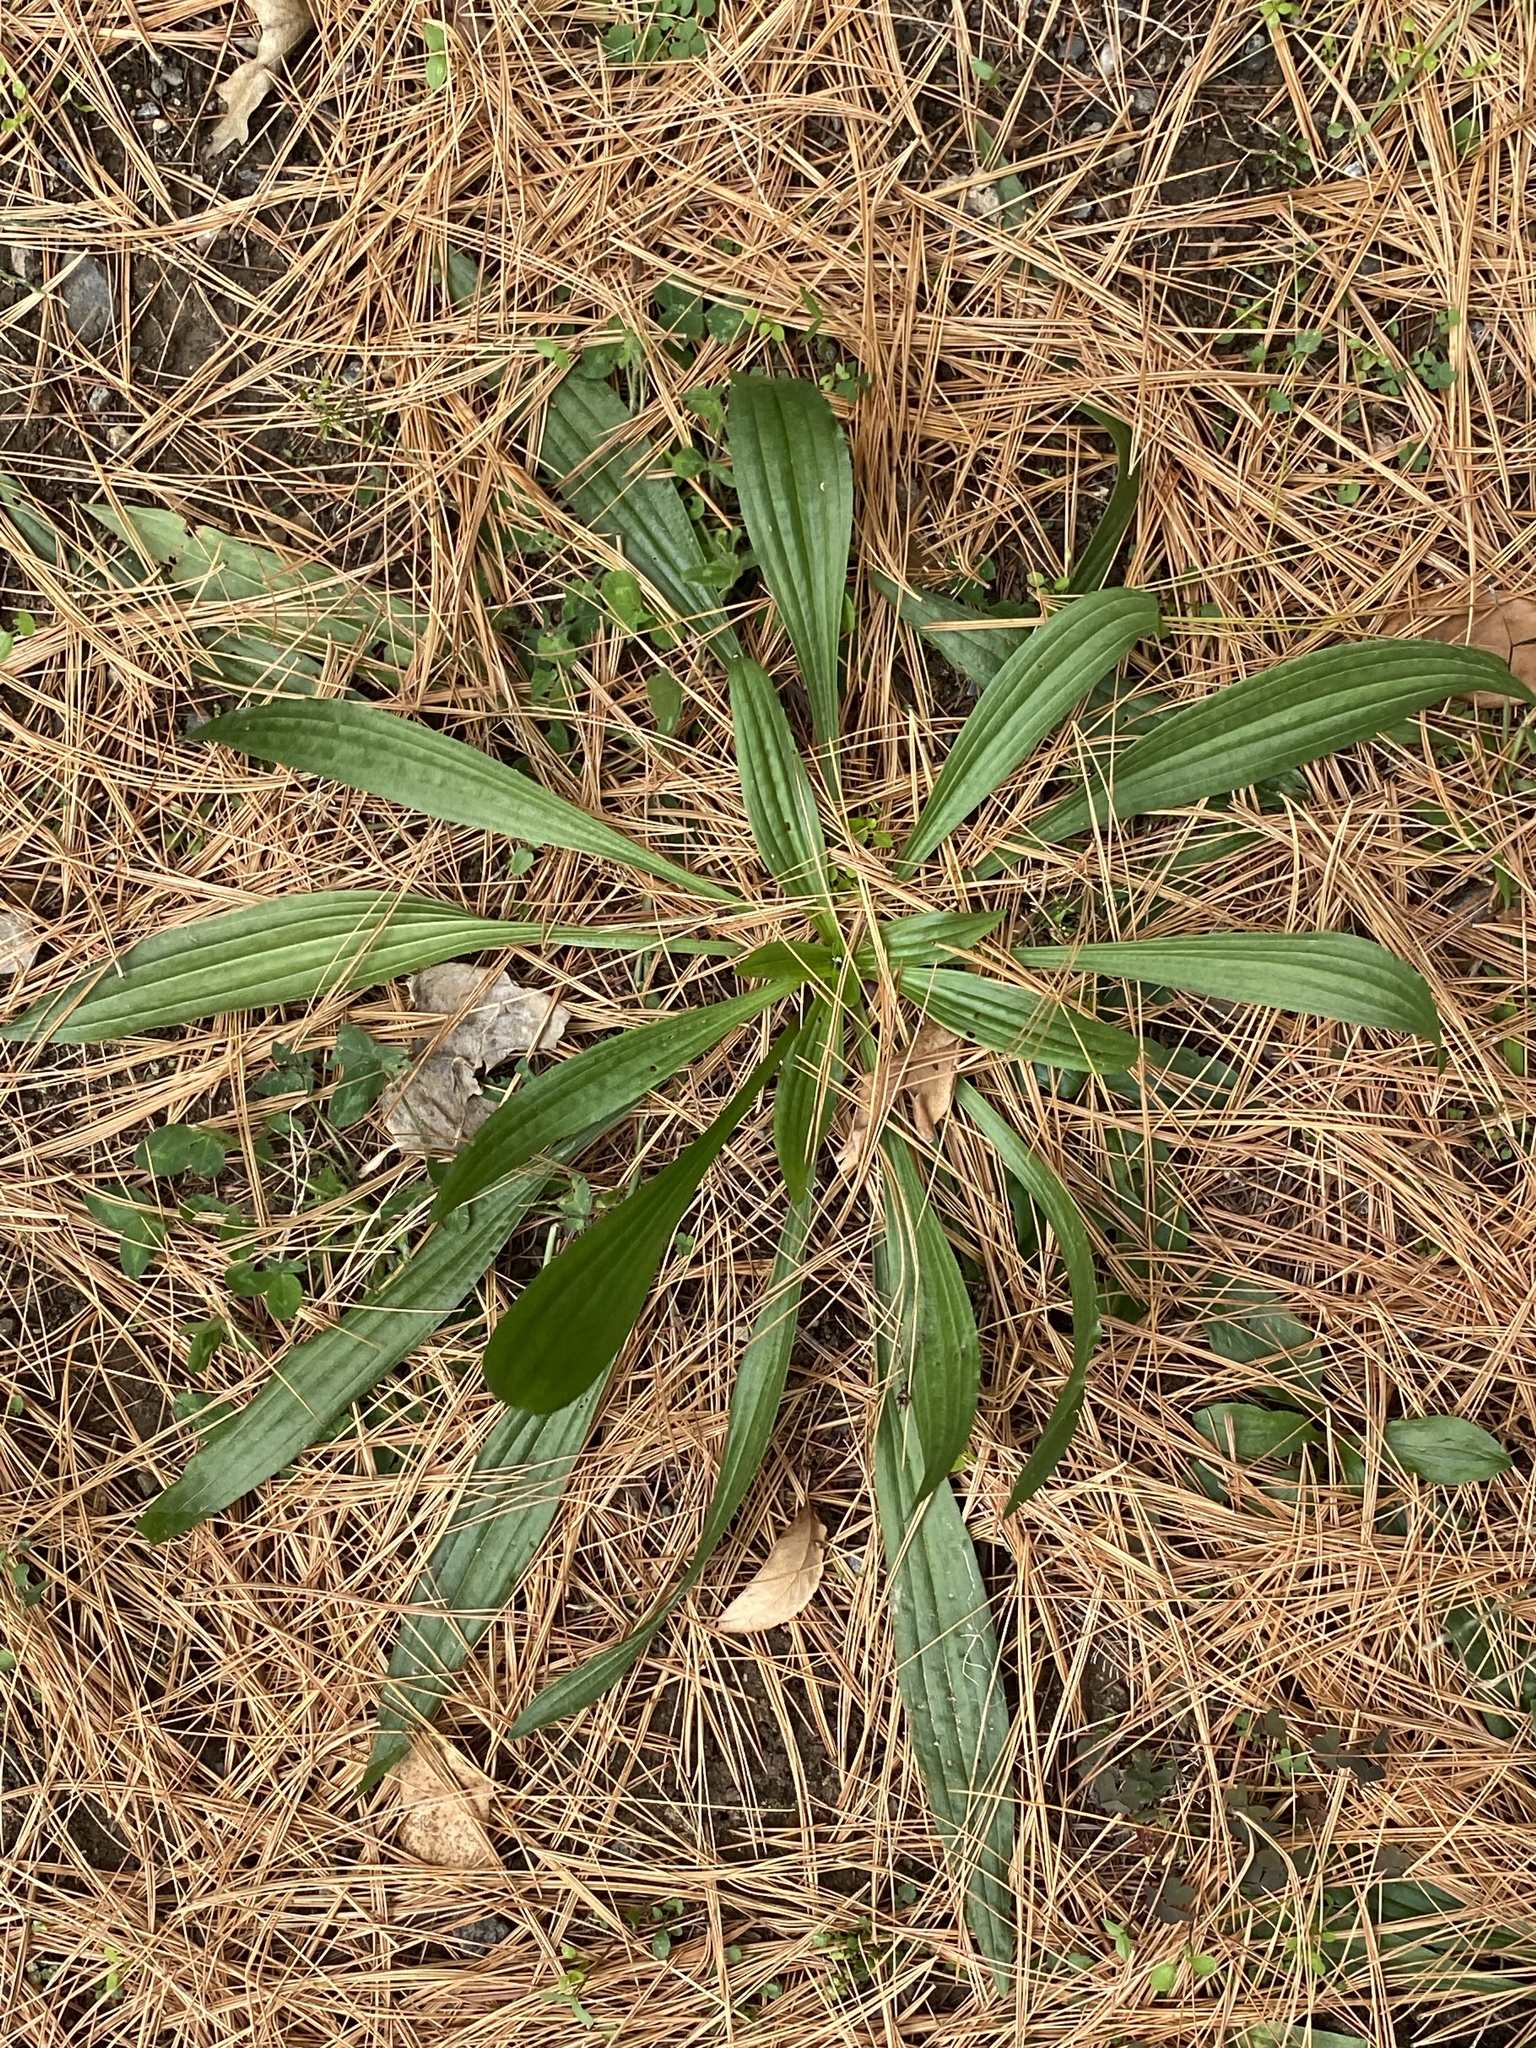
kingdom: Plantae
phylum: Tracheophyta
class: Magnoliopsida
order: Lamiales
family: Plantaginaceae
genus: Plantago
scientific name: Plantago lanceolata
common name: Ribwort plantain
